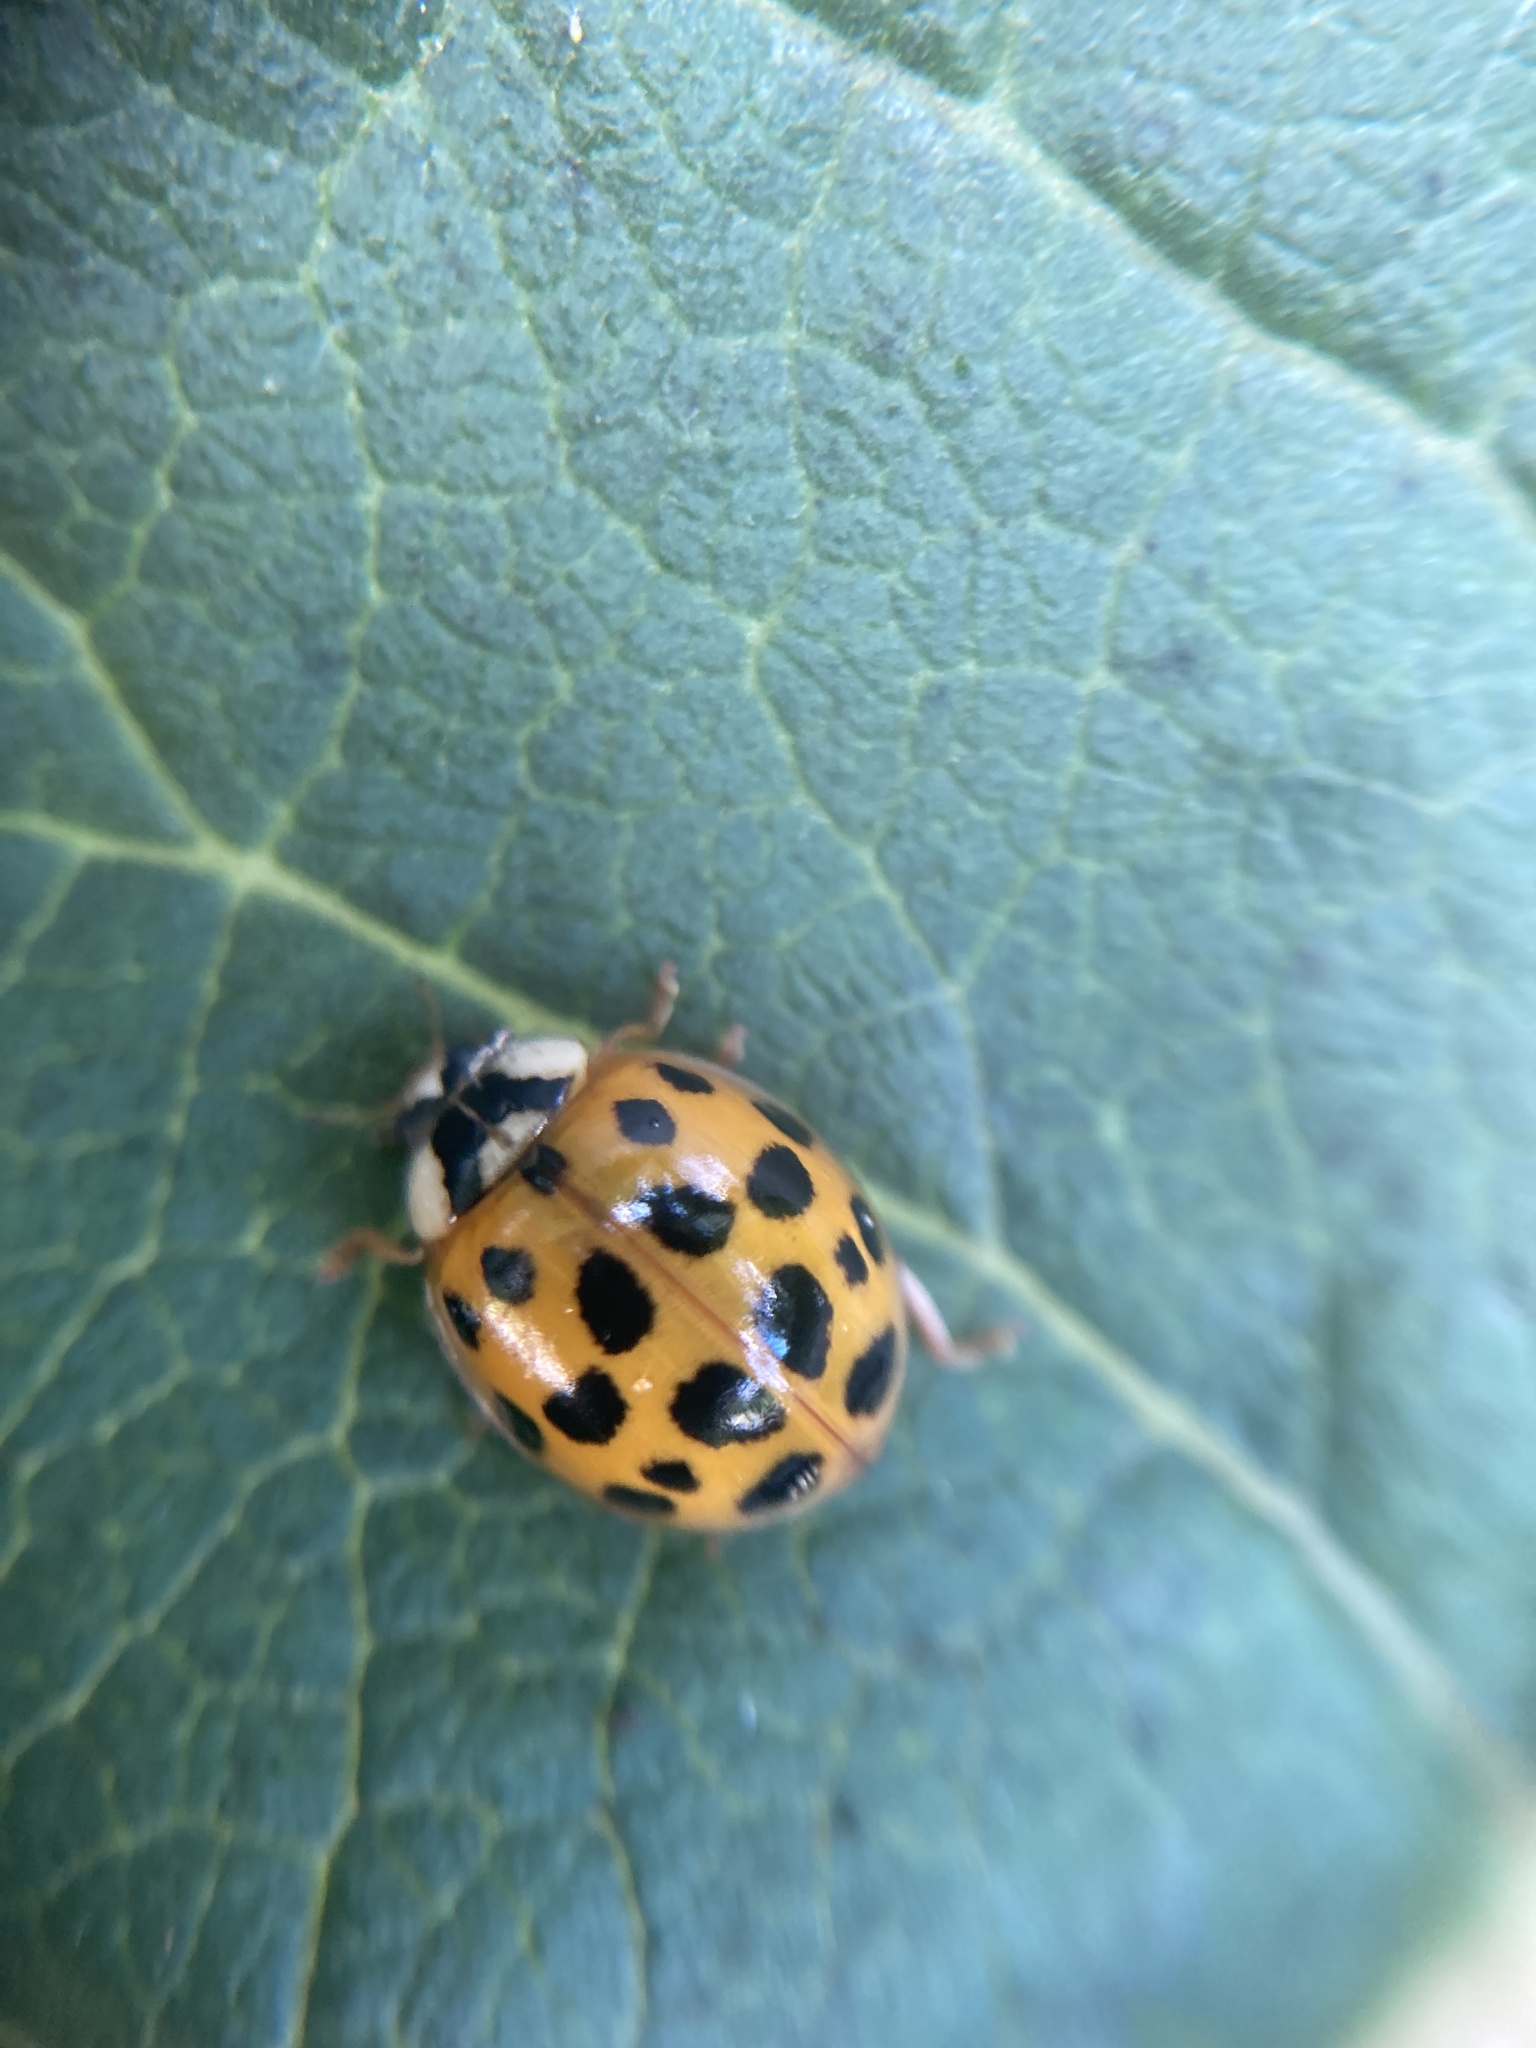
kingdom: Animalia
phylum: Arthropoda
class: Insecta
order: Coleoptera
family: Coccinellidae
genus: Harmonia
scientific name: Harmonia axyridis
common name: Harlequin ladybird
